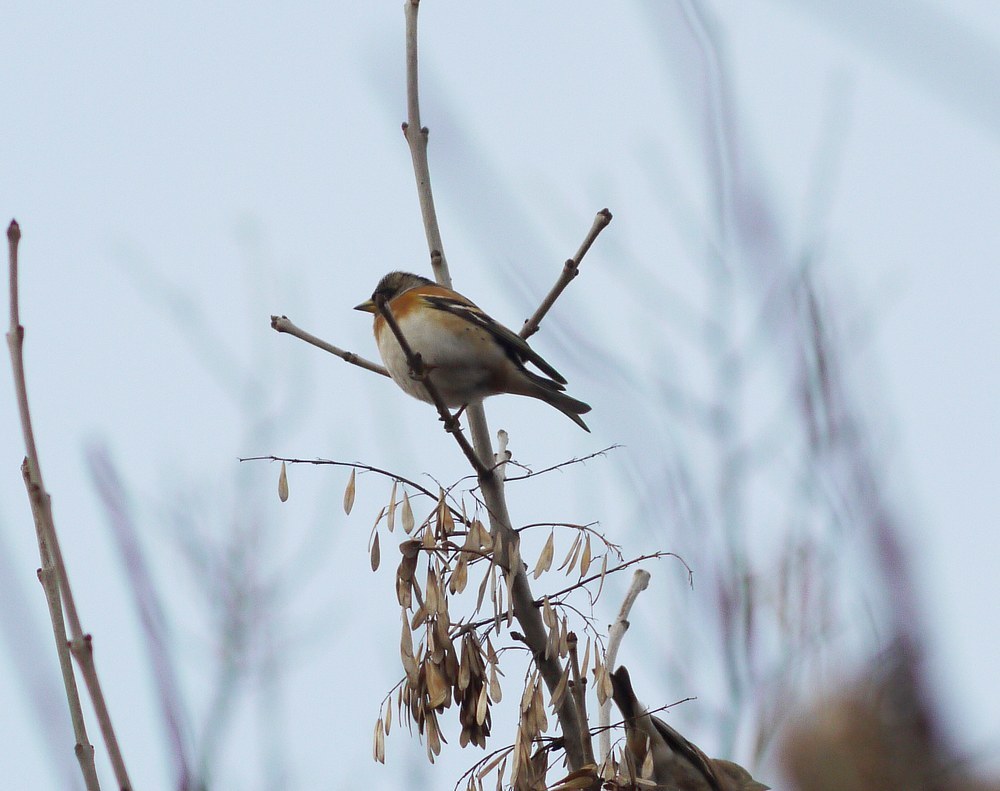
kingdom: Animalia
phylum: Chordata
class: Aves
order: Passeriformes
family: Fringillidae
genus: Fringilla
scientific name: Fringilla montifringilla
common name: Brambling
